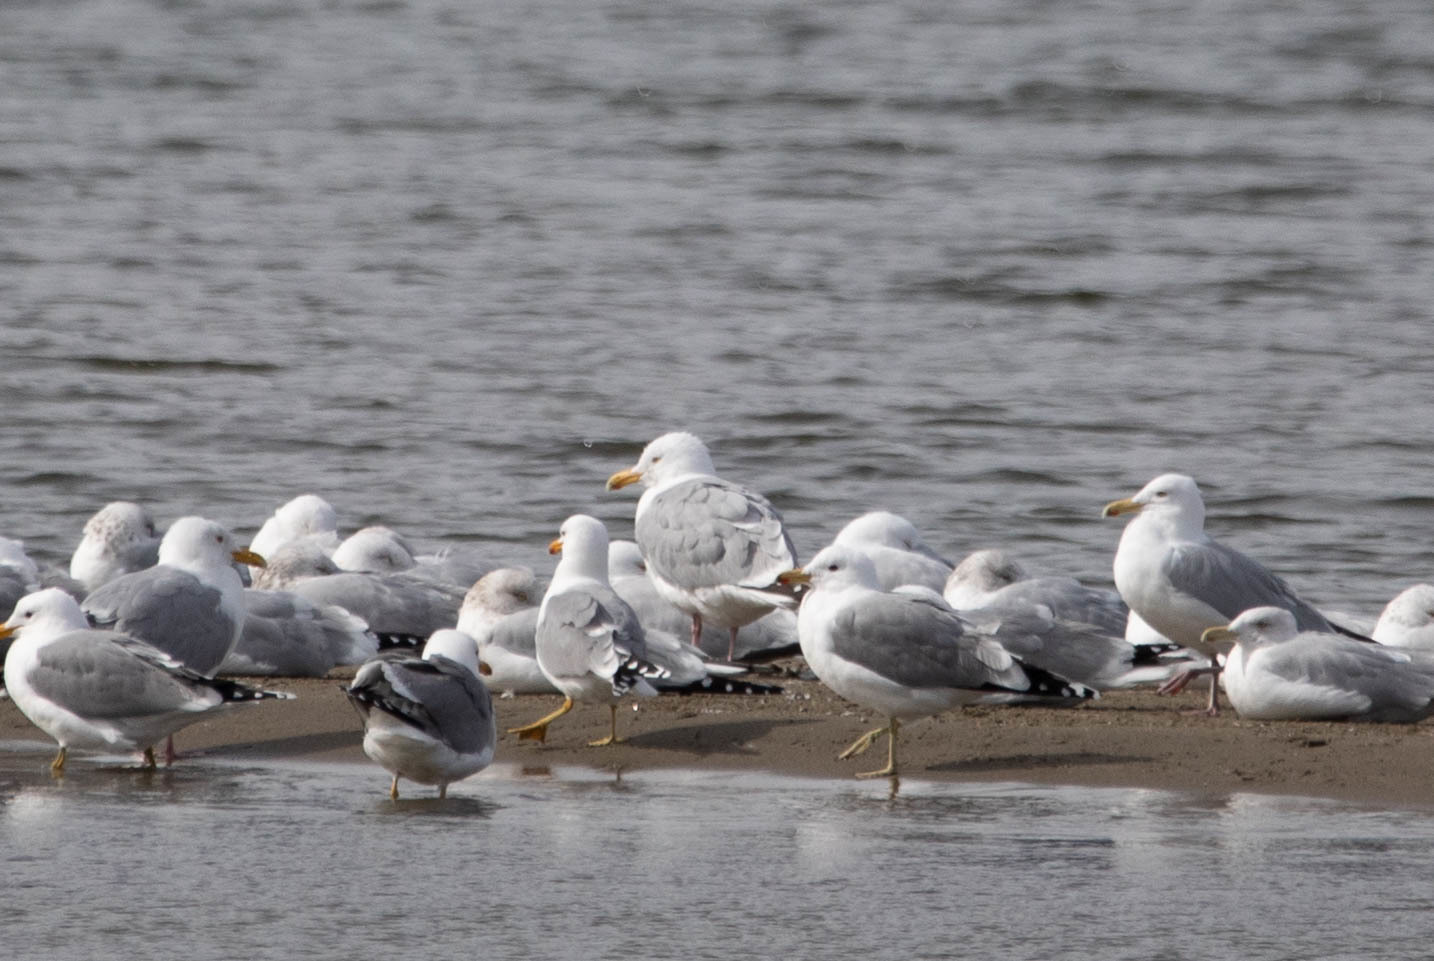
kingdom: Animalia
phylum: Chordata
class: Aves
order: Charadriiformes
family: Laridae
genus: Larus
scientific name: Larus californicus
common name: California gull
